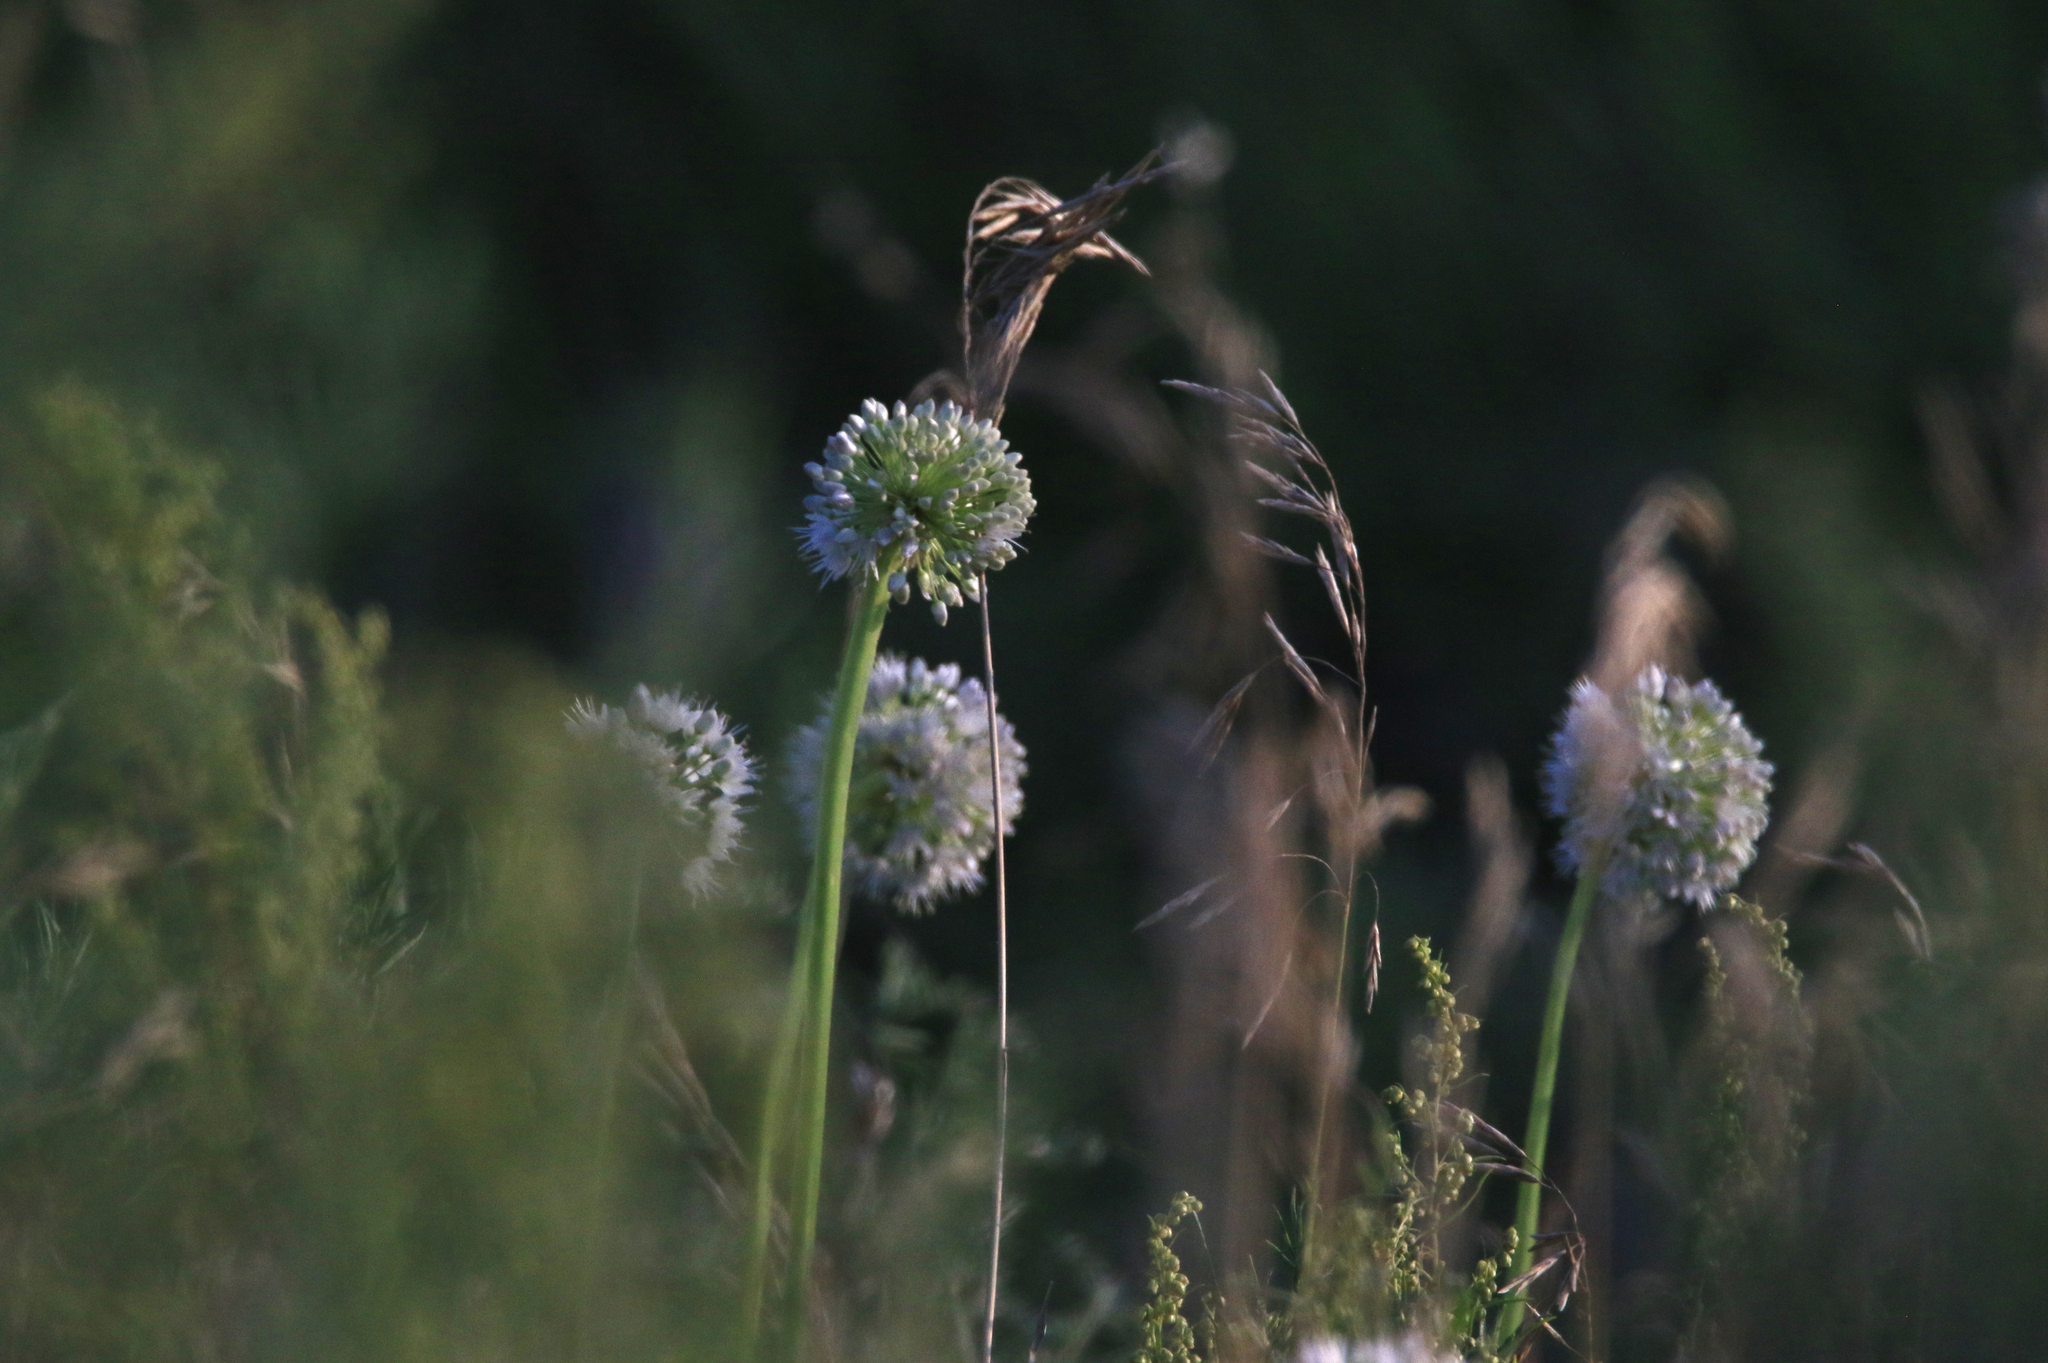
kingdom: Plantae
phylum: Tracheophyta
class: Liliopsida
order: Asparagales
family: Amaryllidaceae
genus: Allium
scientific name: Allium nutans
